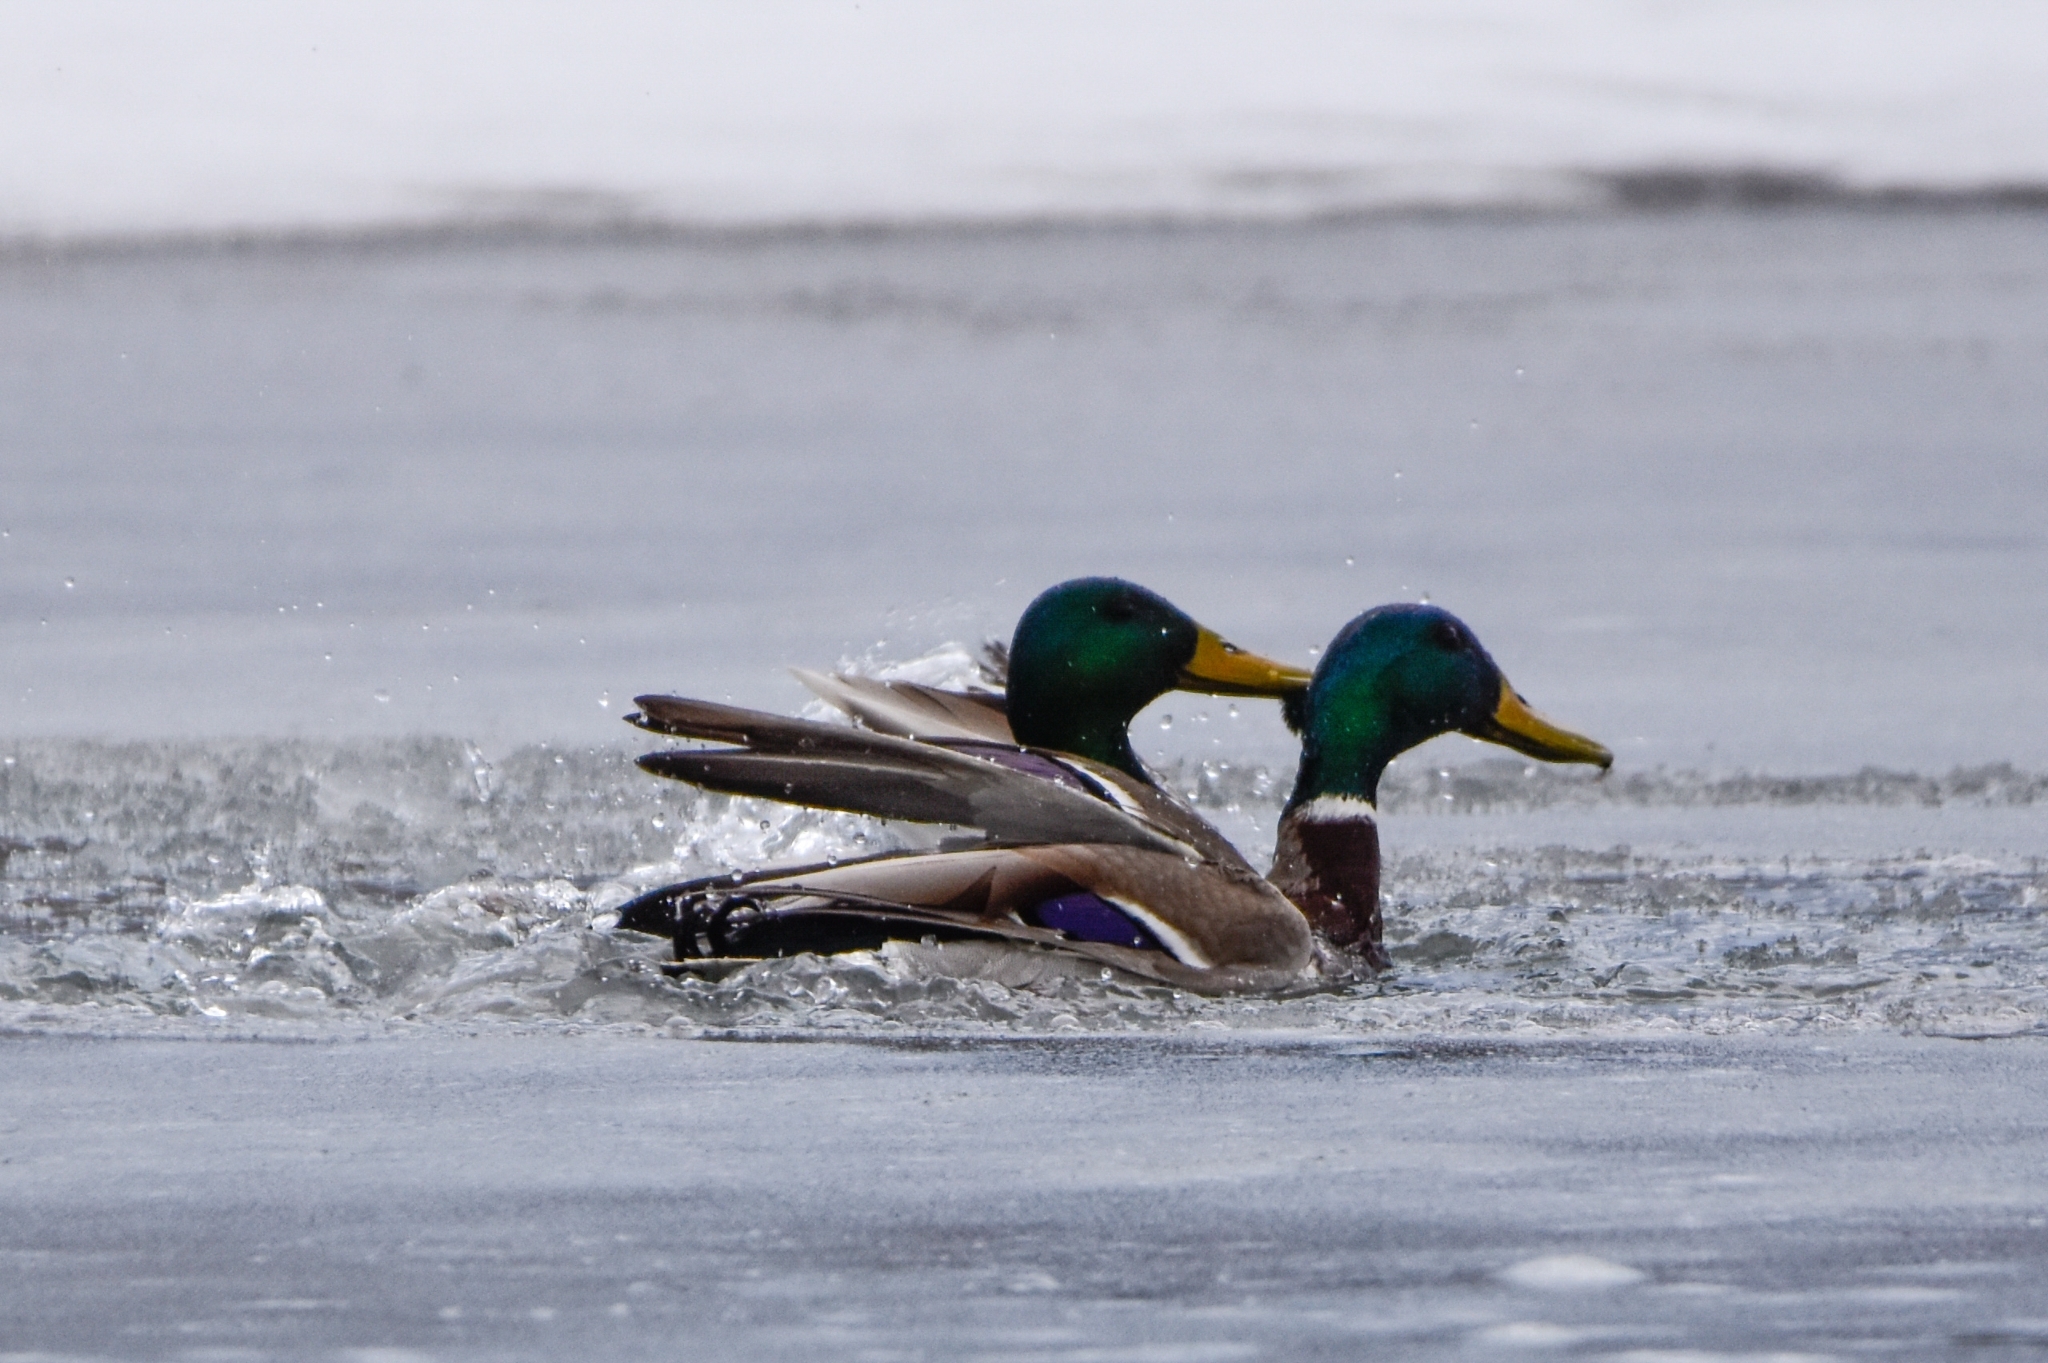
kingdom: Animalia
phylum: Chordata
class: Aves
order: Anseriformes
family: Anatidae
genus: Anas
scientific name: Anas platyrhynchos
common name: Mallard
